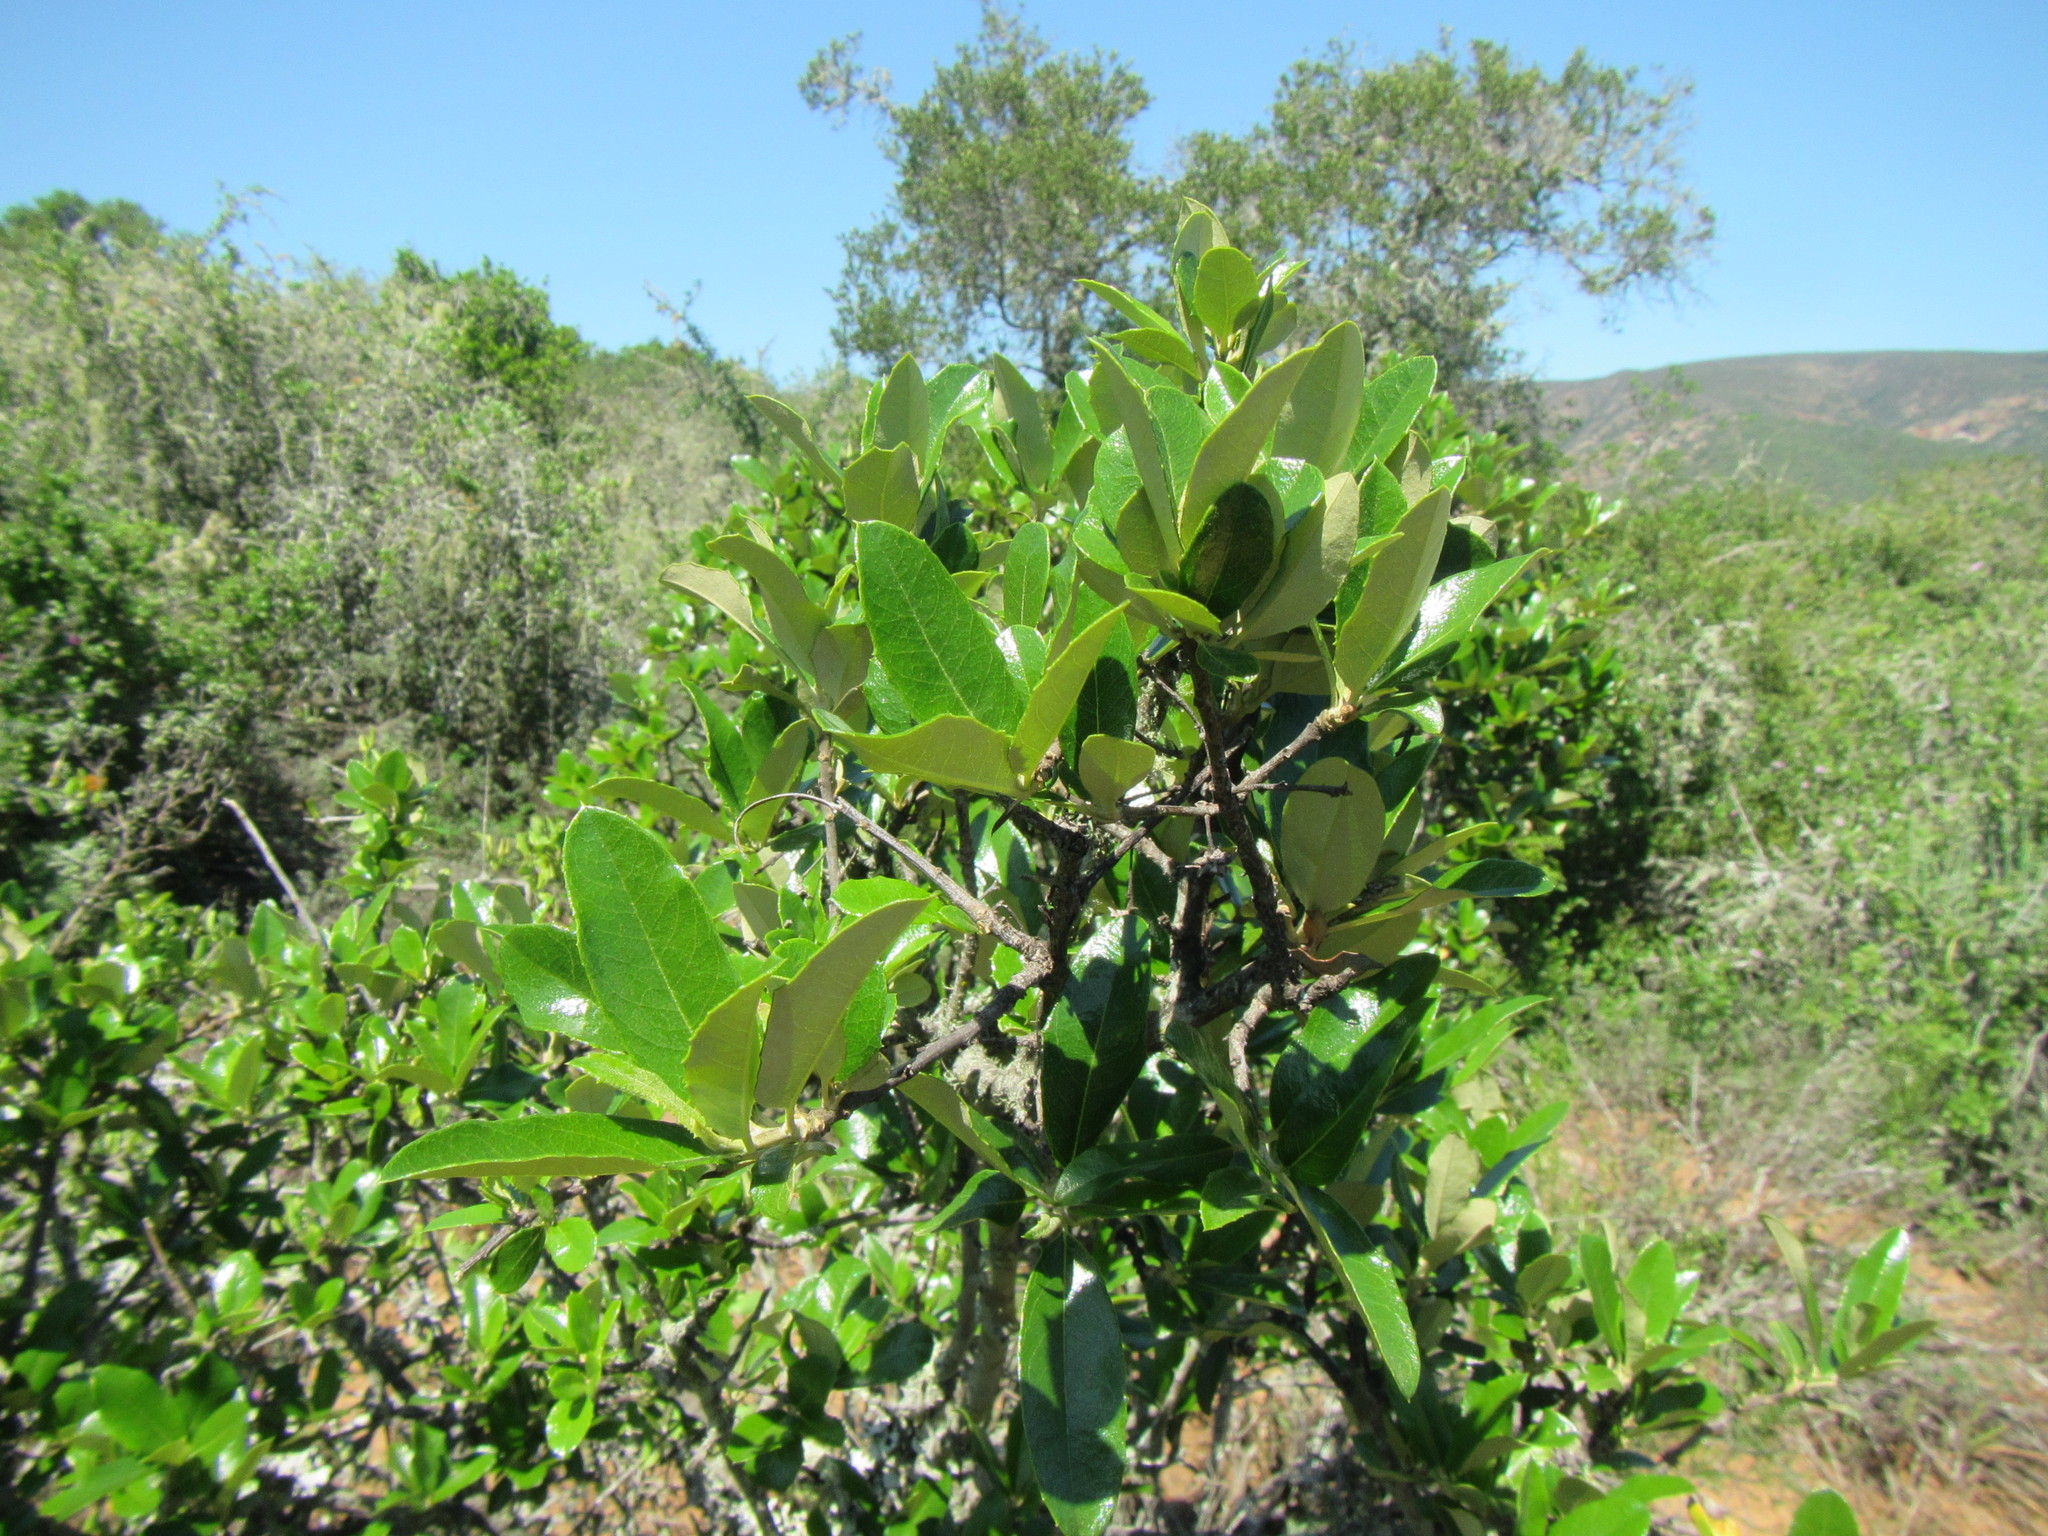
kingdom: Plantae
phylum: Tracheophyta
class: Magnoliopsida
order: Asterales
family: Asteraceae
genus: Brachylaena
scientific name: Brachylaena ilicifolia
